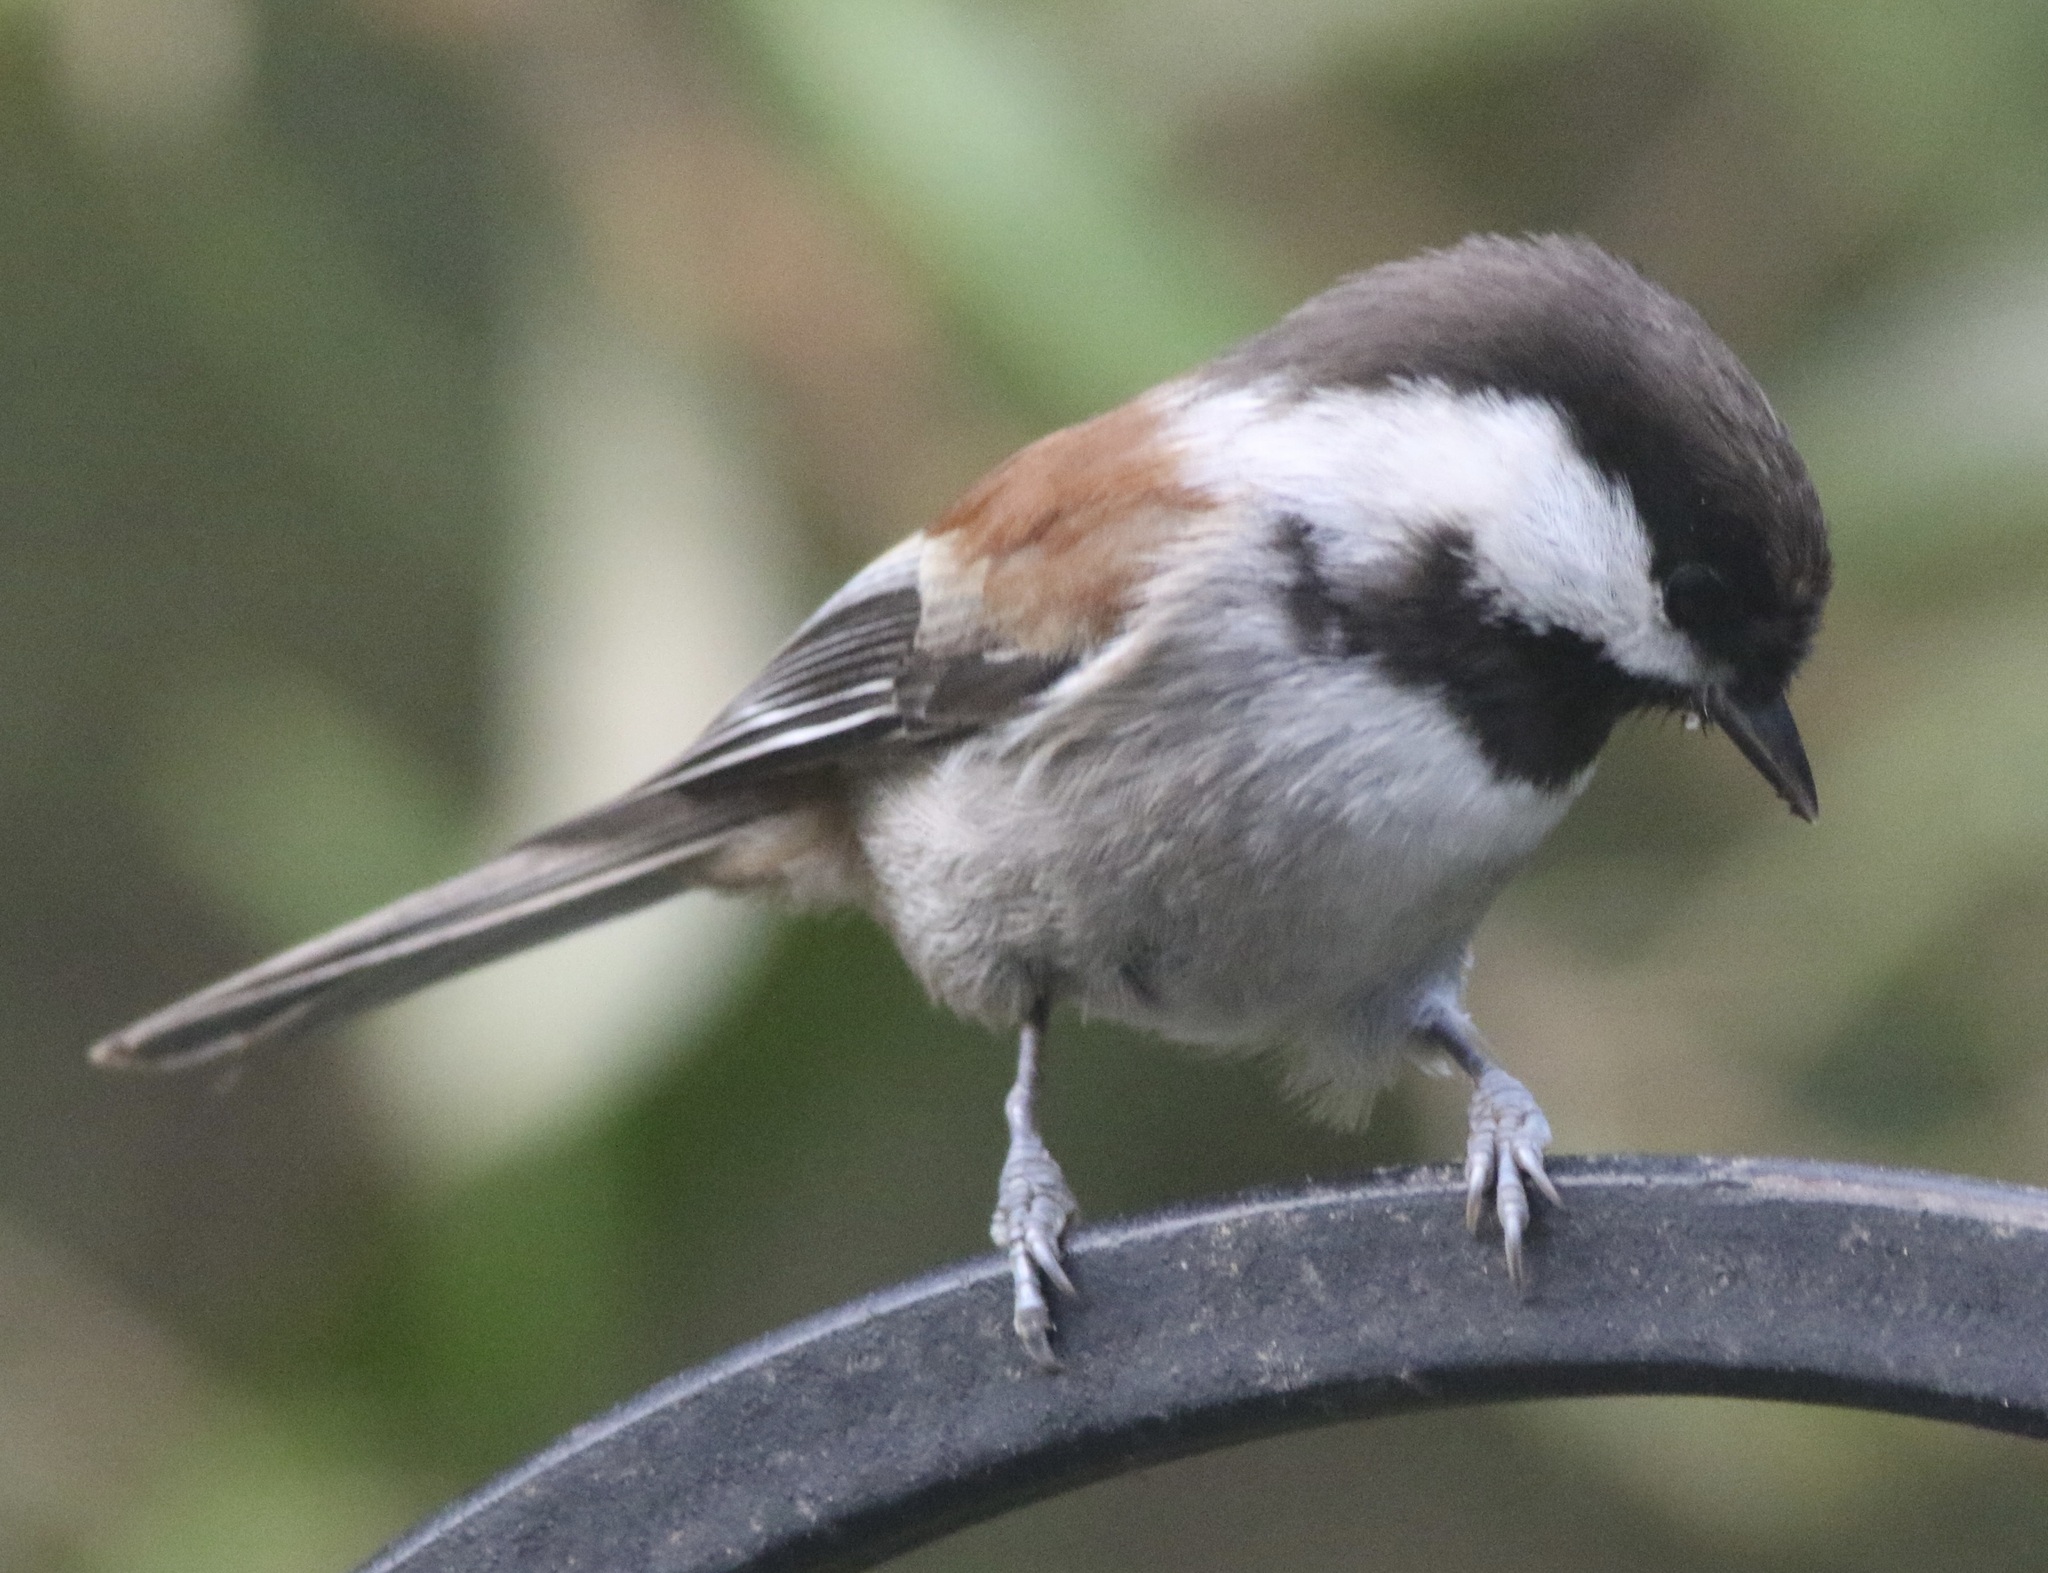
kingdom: Animalia
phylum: Chordata
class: Aves
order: Passeriformes
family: Paridae
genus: Poecile
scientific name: Poecile rufescens
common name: Chestnut-backed chickadee
